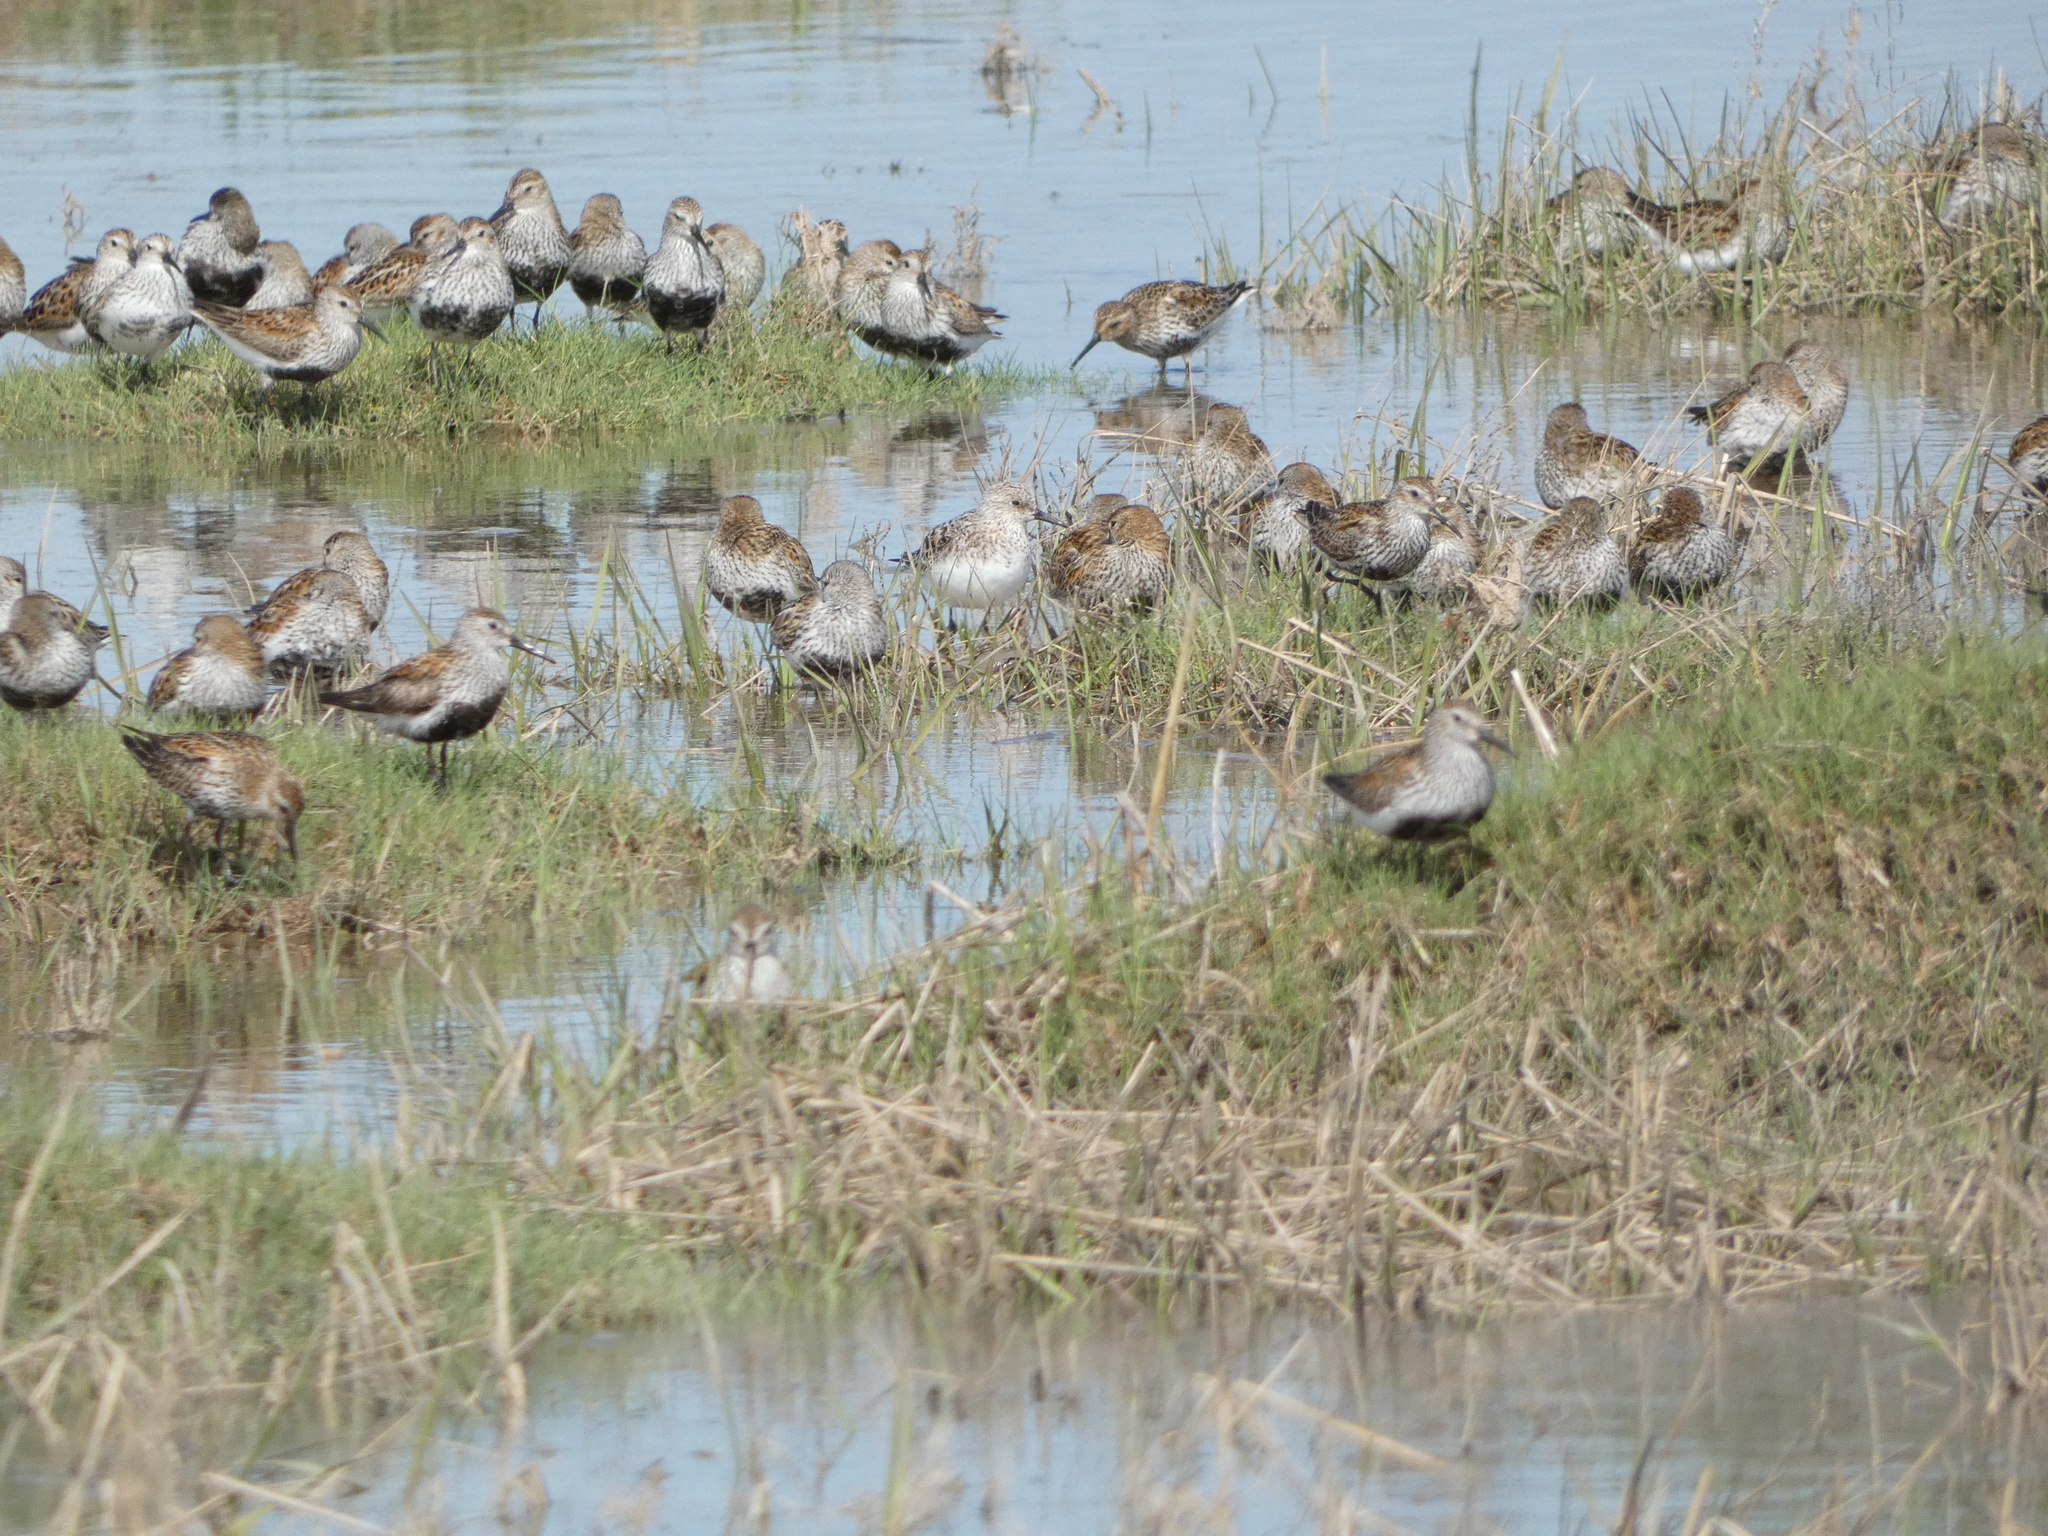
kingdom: Animalia
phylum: Chordata
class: Aves
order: Charadriiformes
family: Scolopacidae
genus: Calidris
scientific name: Calidris alba
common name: Sanderling
